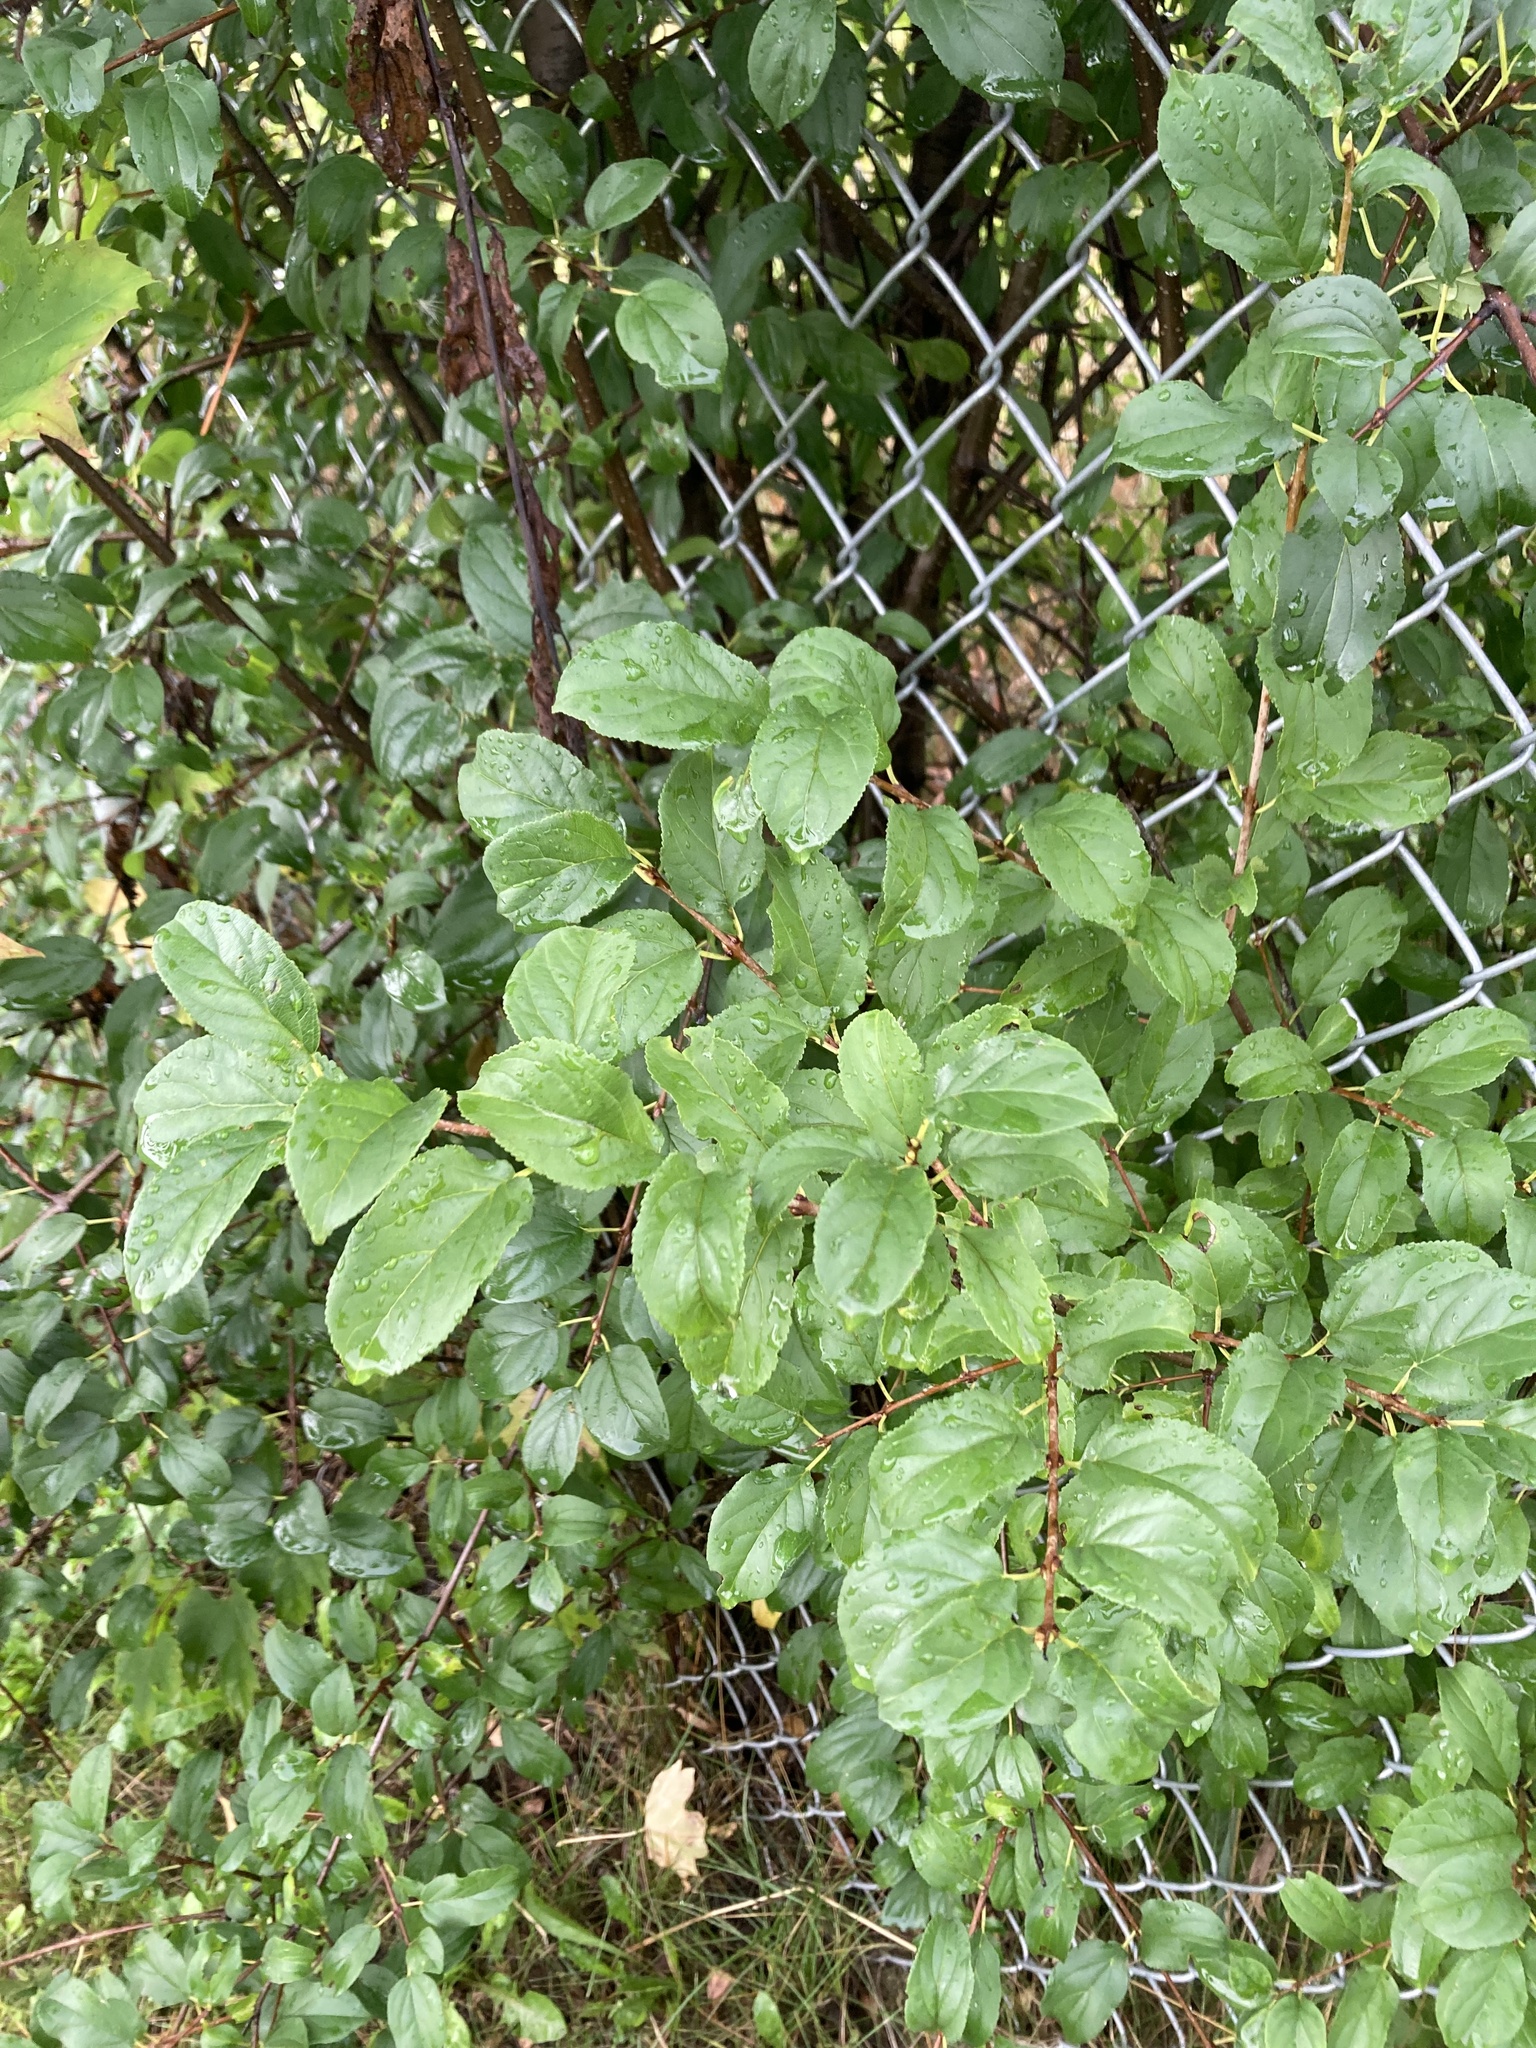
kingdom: Plantae
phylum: Tracheophyta
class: Magnoliopsida
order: Rosales
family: Rhamnaceae
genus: Rhamnus
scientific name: Rhamnus cathartica
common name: Common buckthorn
